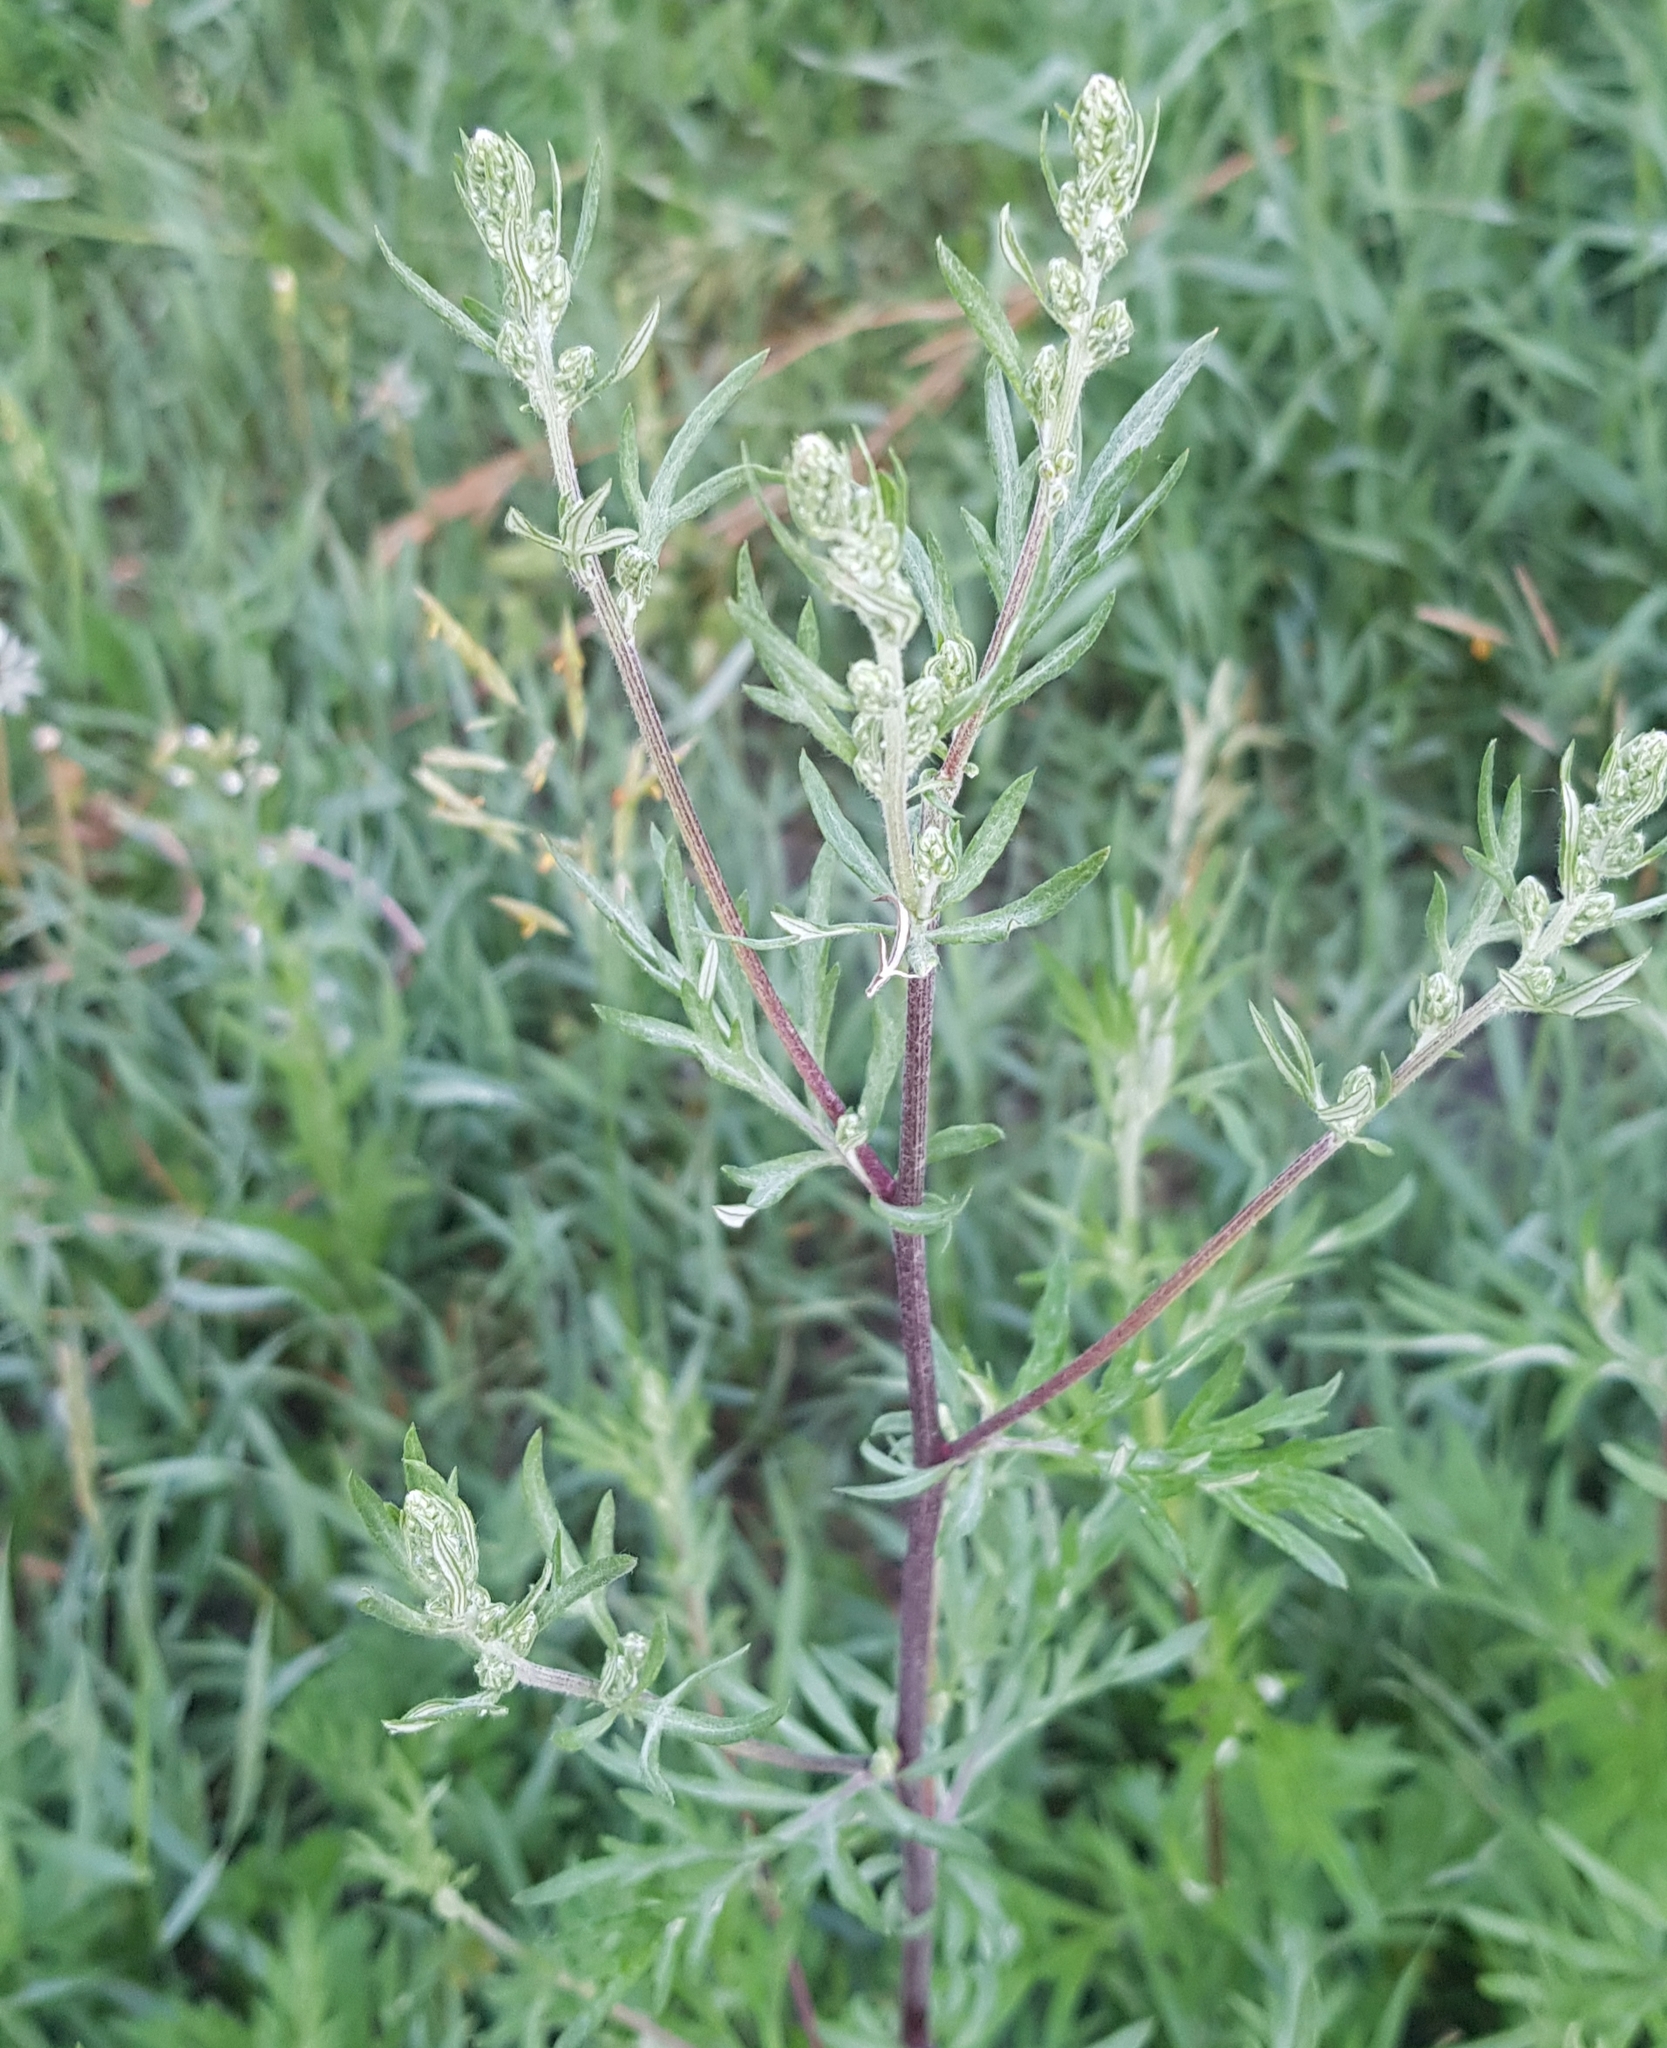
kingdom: Plantae
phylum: Tracheophyta
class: Magnoliopsida
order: Asterales
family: Asteraceae
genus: Artemisia
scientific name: Artemisia mongolica
